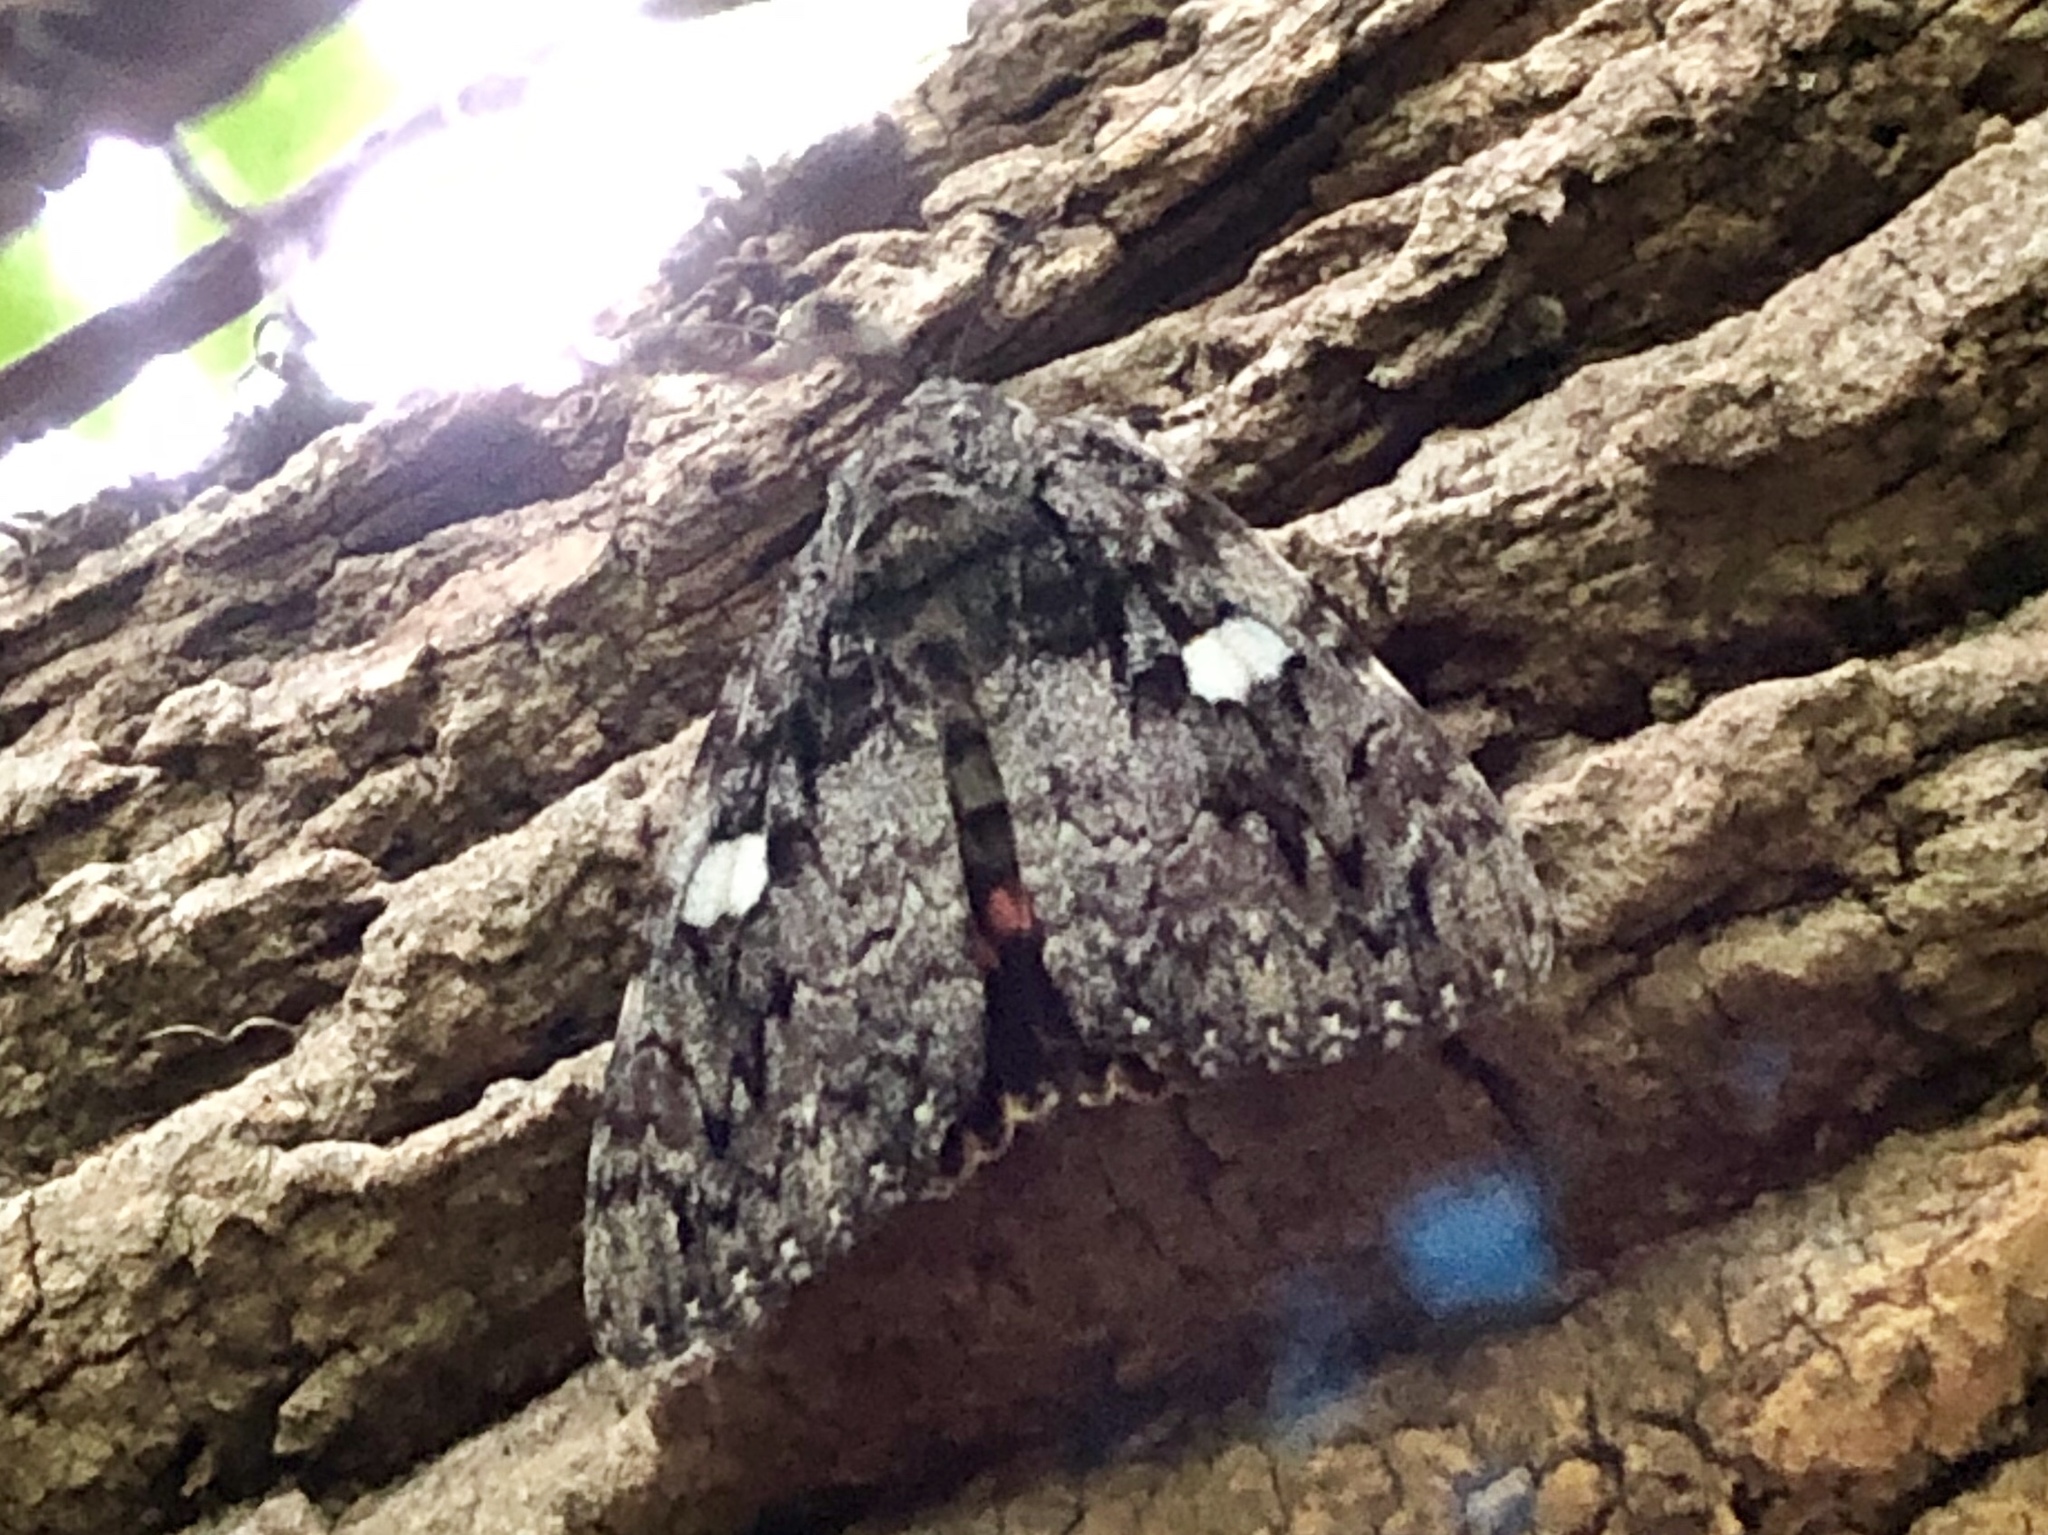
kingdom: Animalia
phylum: Arthropoda
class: Insecta
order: Lepidoptera
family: Erebidae
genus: Catocala
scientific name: Catocala ilia
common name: Ilia underwing
